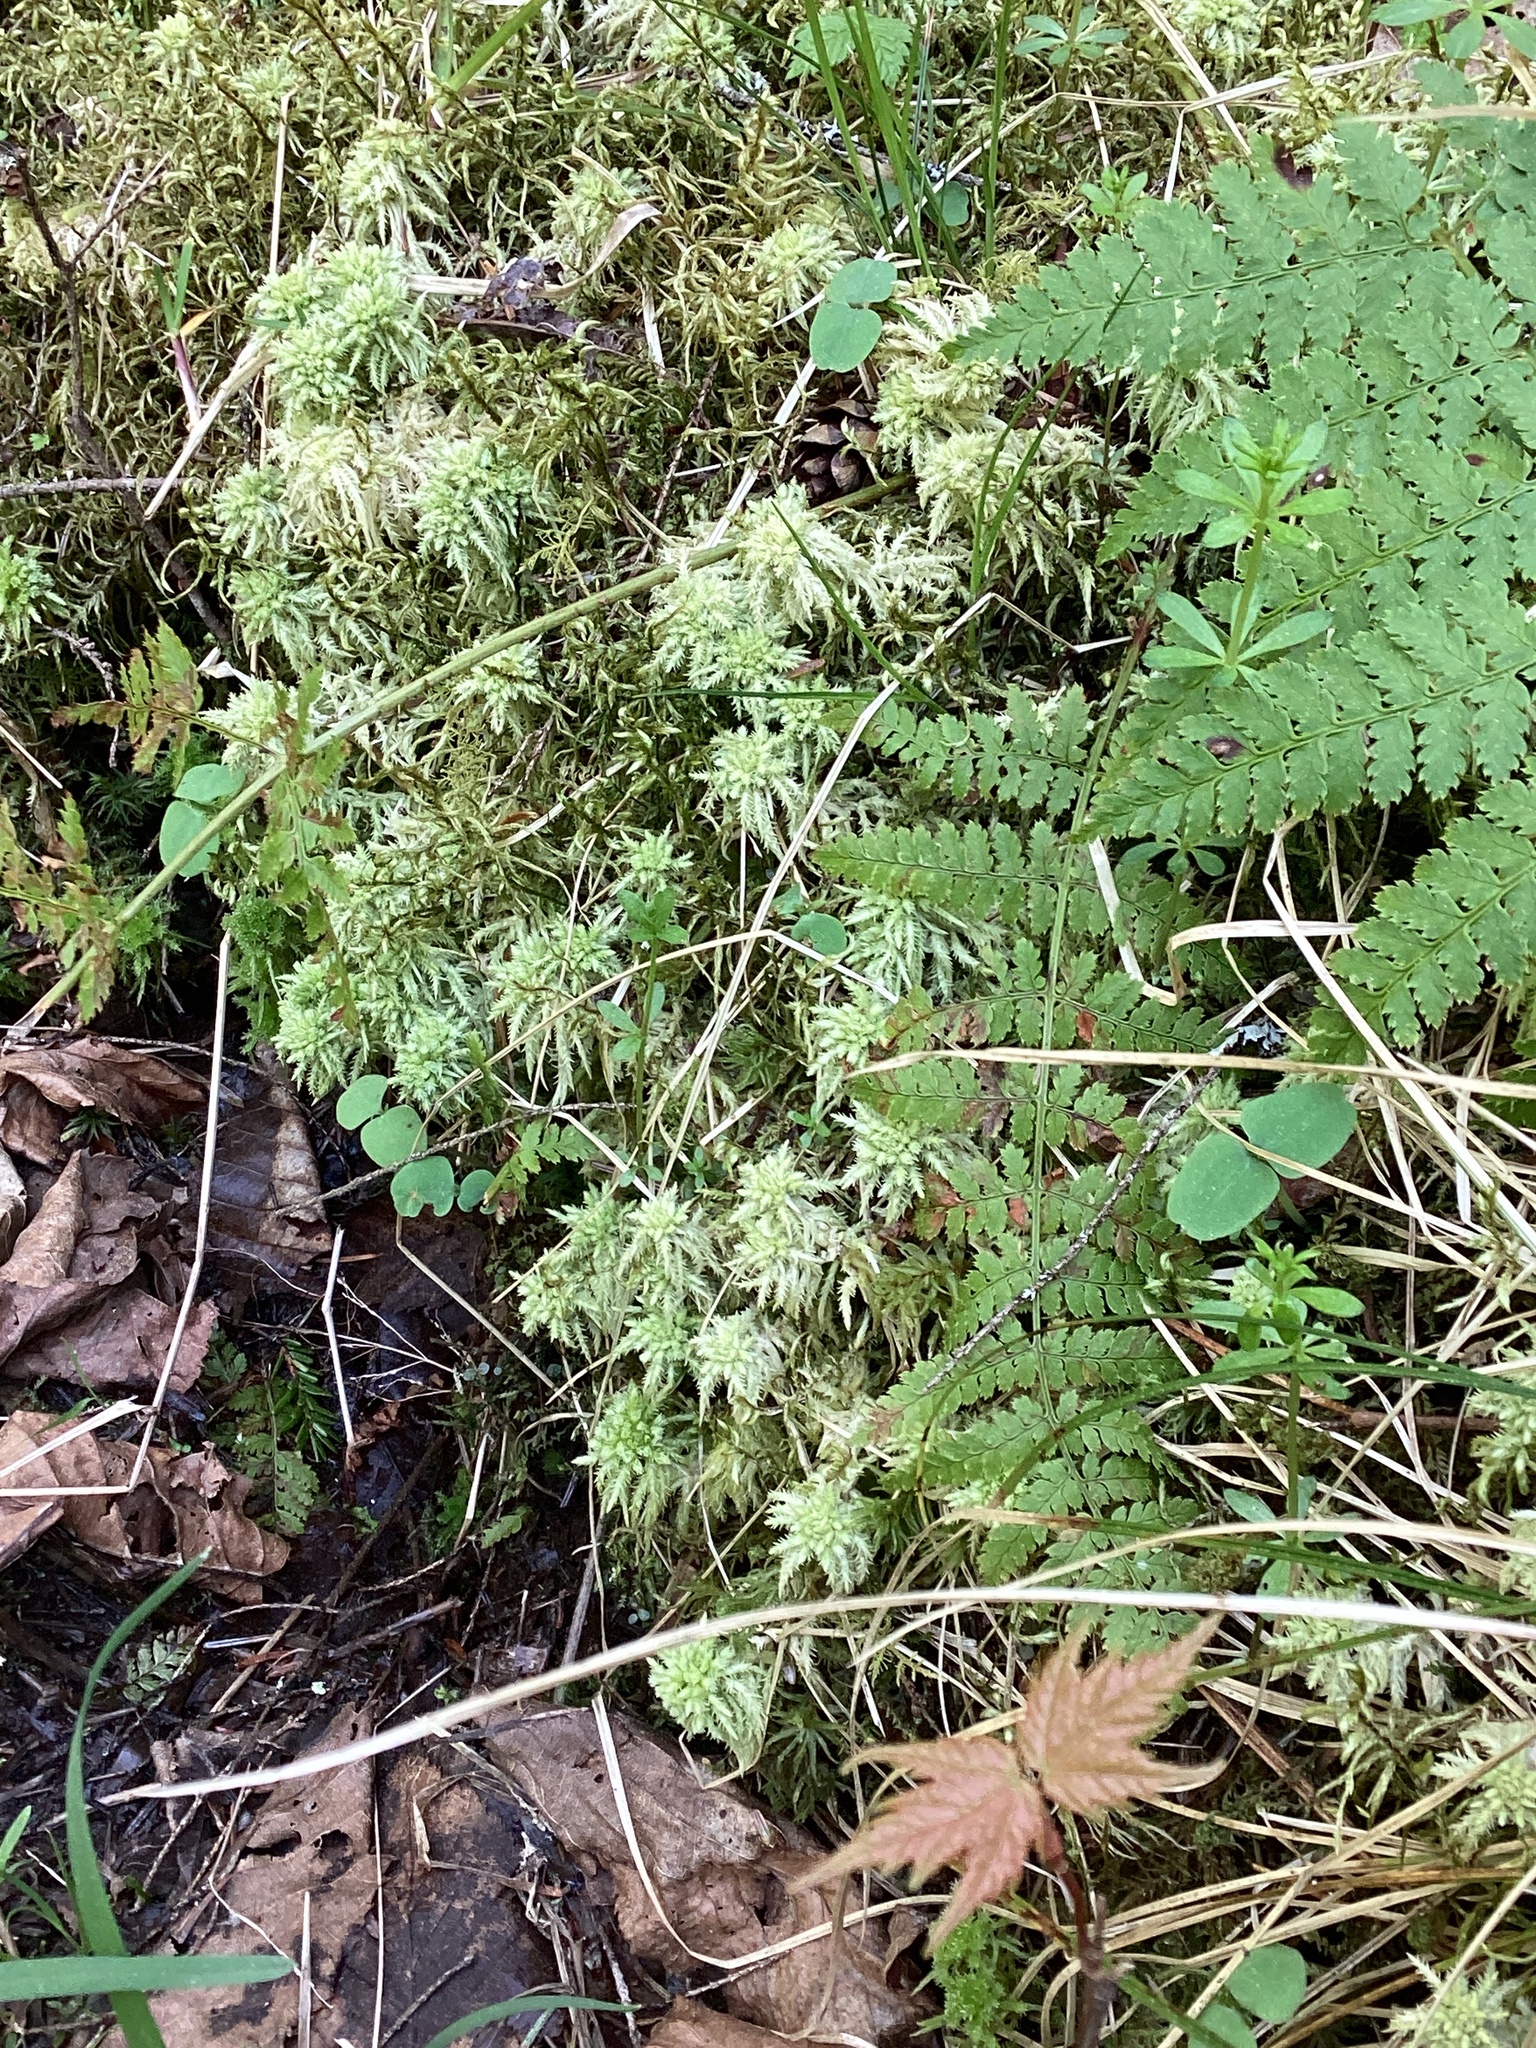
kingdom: Plantae
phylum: Bryophyta
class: Sphagnopsida
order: Sphagnales
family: Sphagnaceae
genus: Sphagnum
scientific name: Sphagnum squarrosum
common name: Shaggy peat moss
